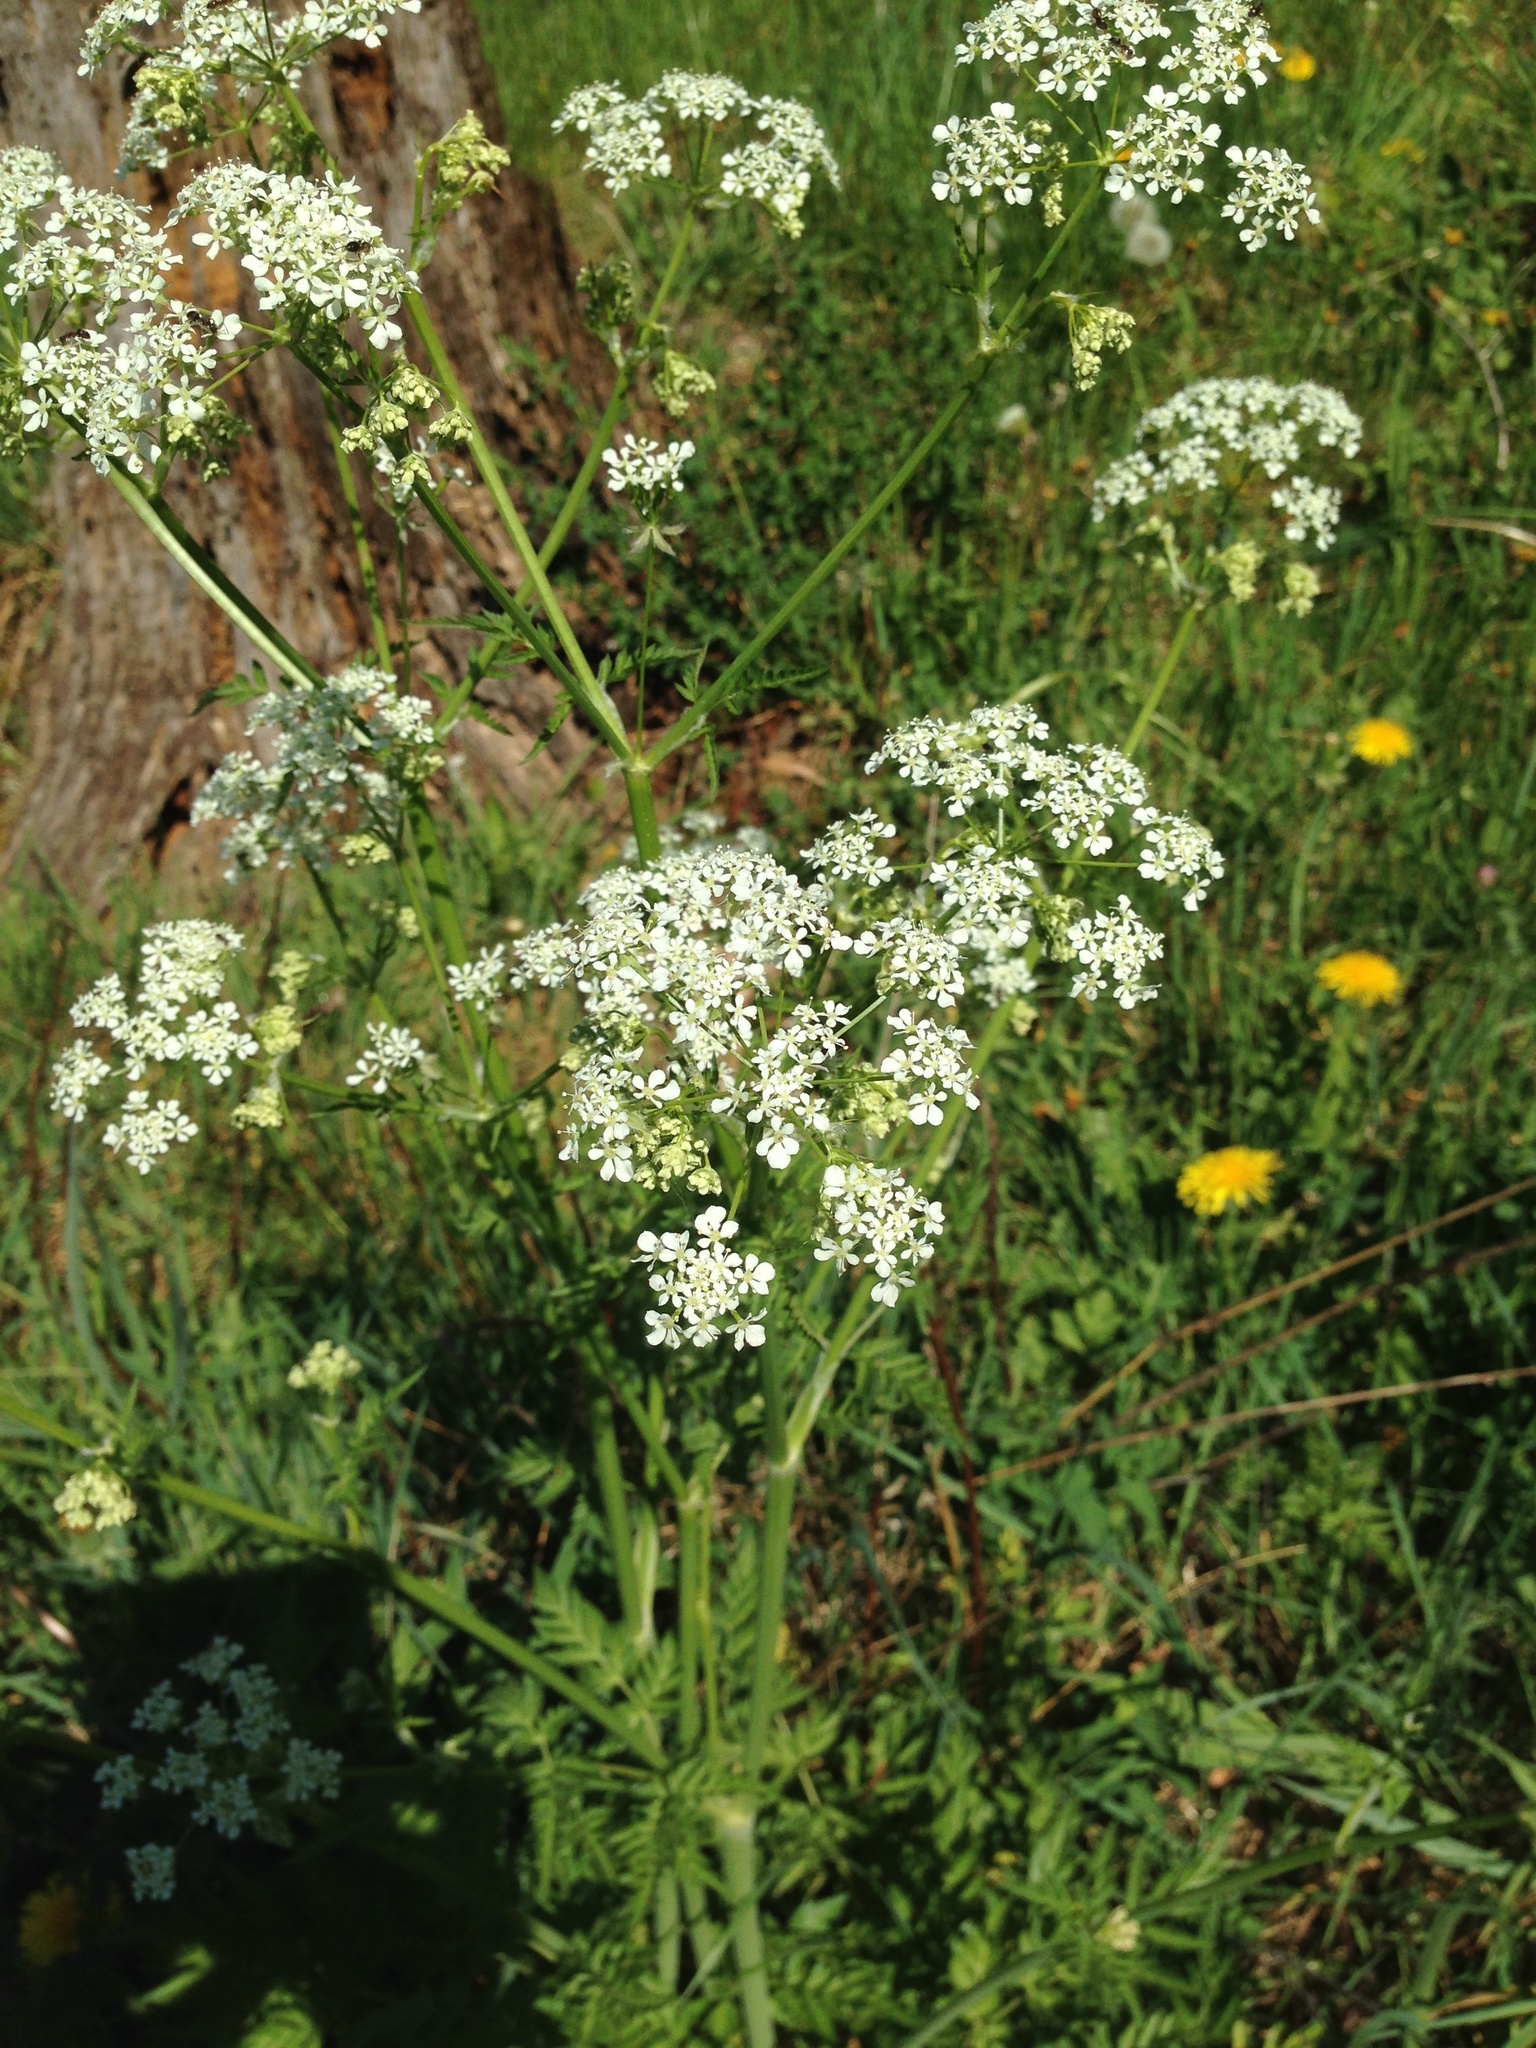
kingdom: Plantae
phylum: Tracheophyta
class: Magnoliopsida
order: Apiales
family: Apiaceae
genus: Anthriscus
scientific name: Anthriscus sylvestris
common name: Cow parsley
